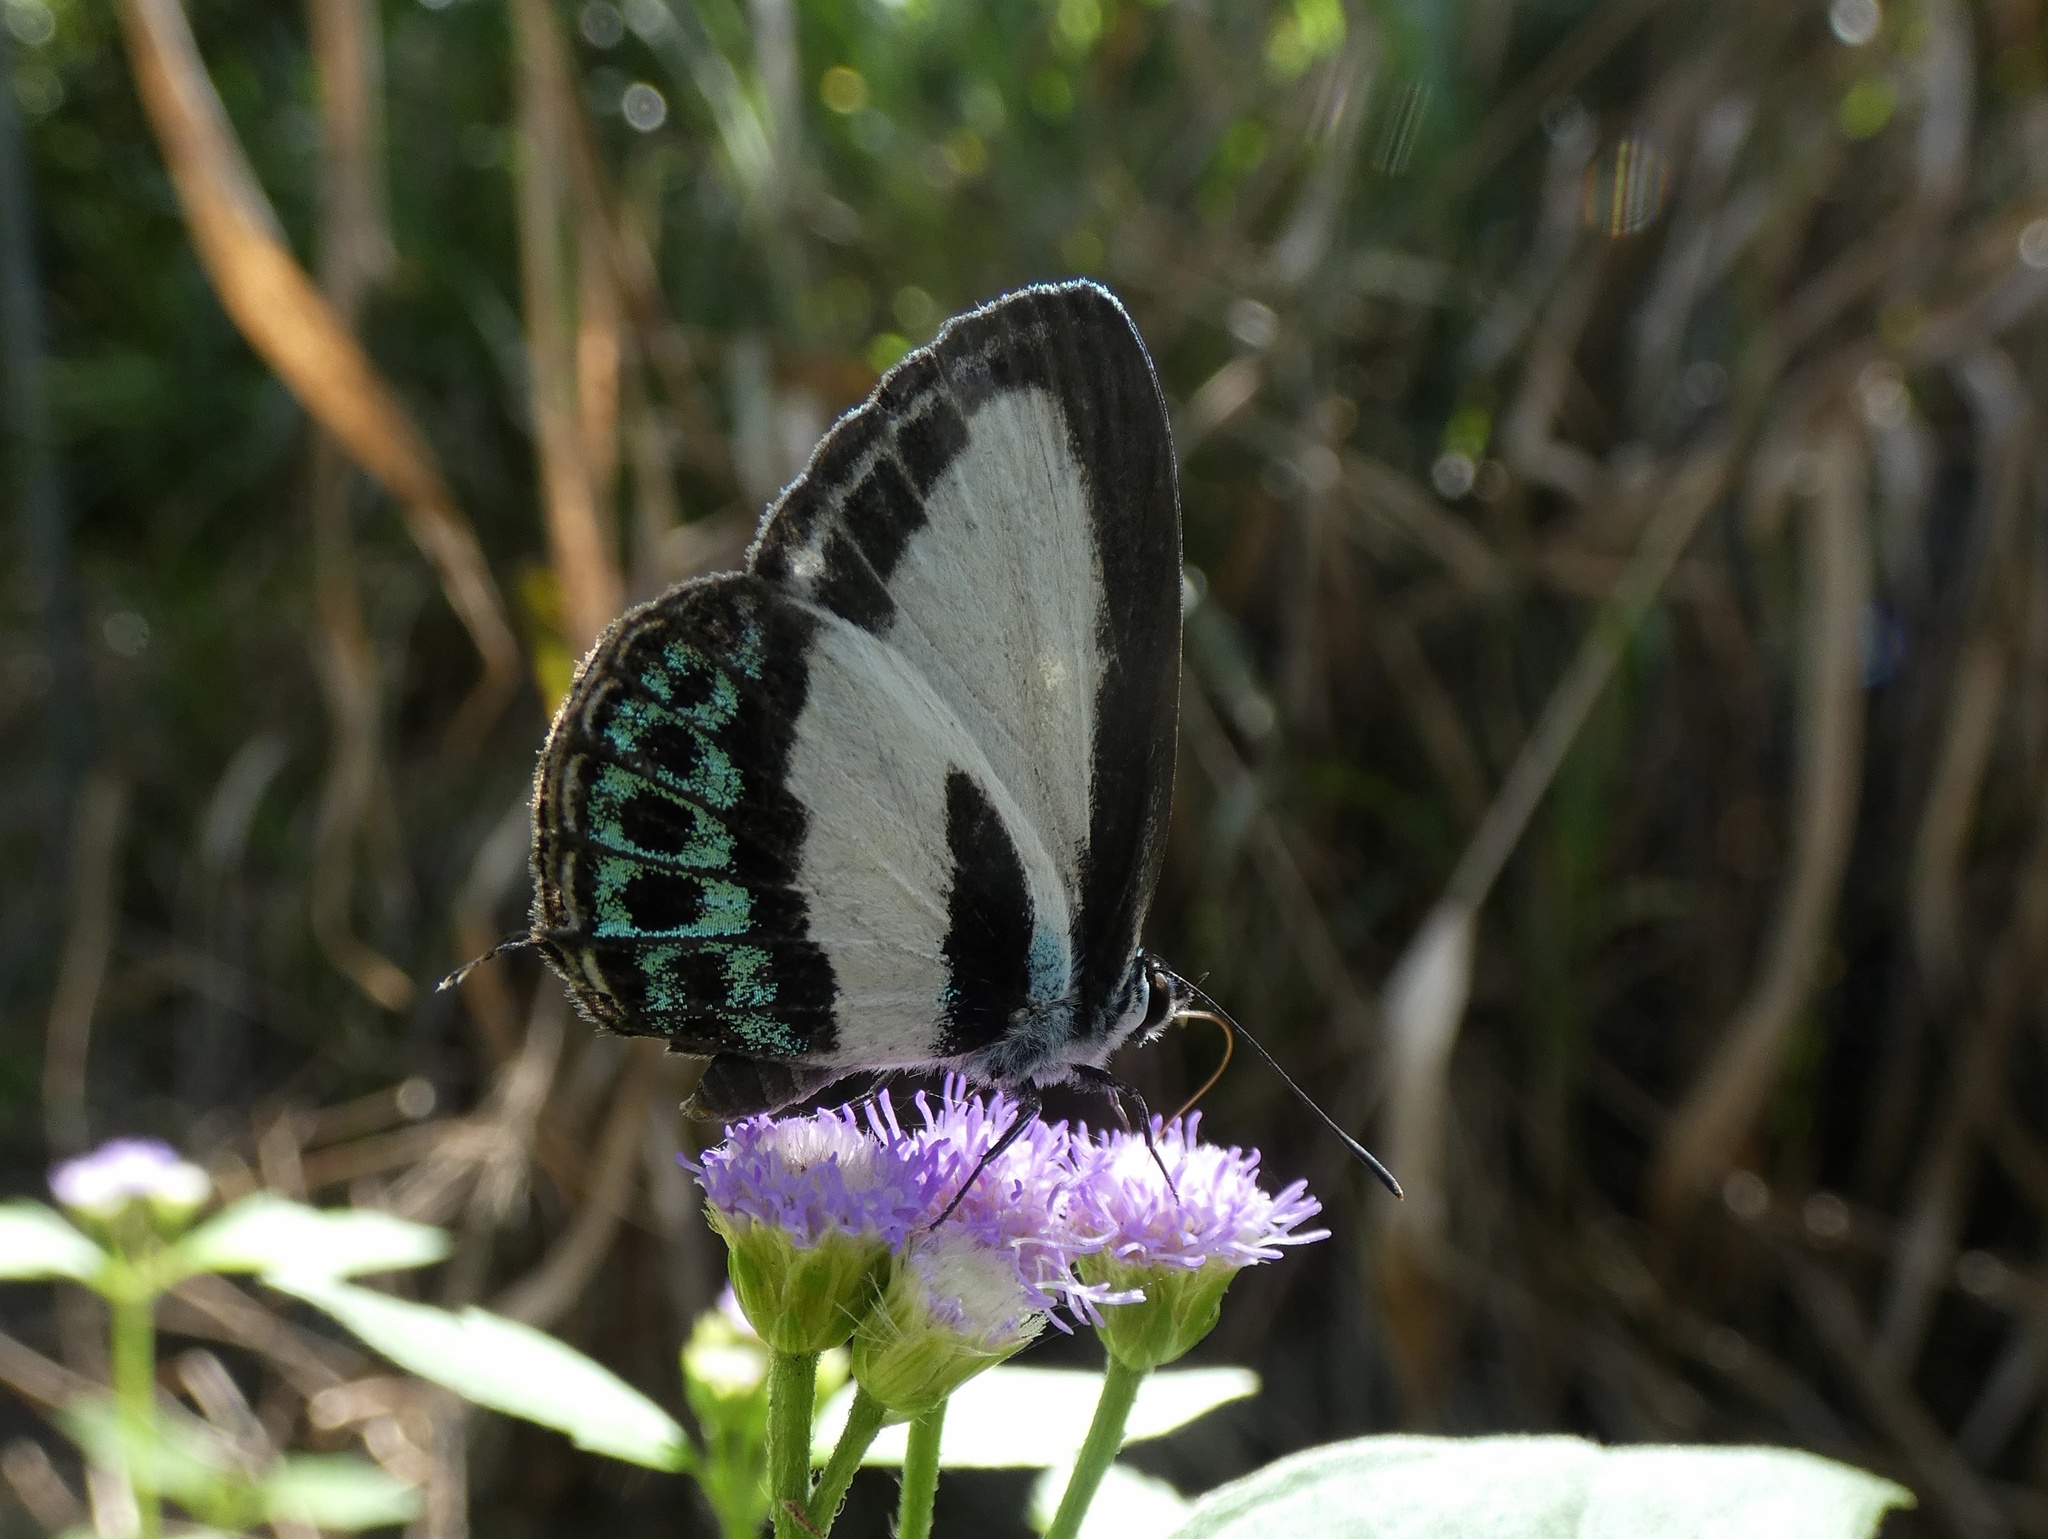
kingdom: Animalia
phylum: Arthropoda
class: Insecta
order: Lepidoptera
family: Lycaenidae
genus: Nacaduba
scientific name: Nacaduba cyanea
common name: Tailed green-banded line blue
